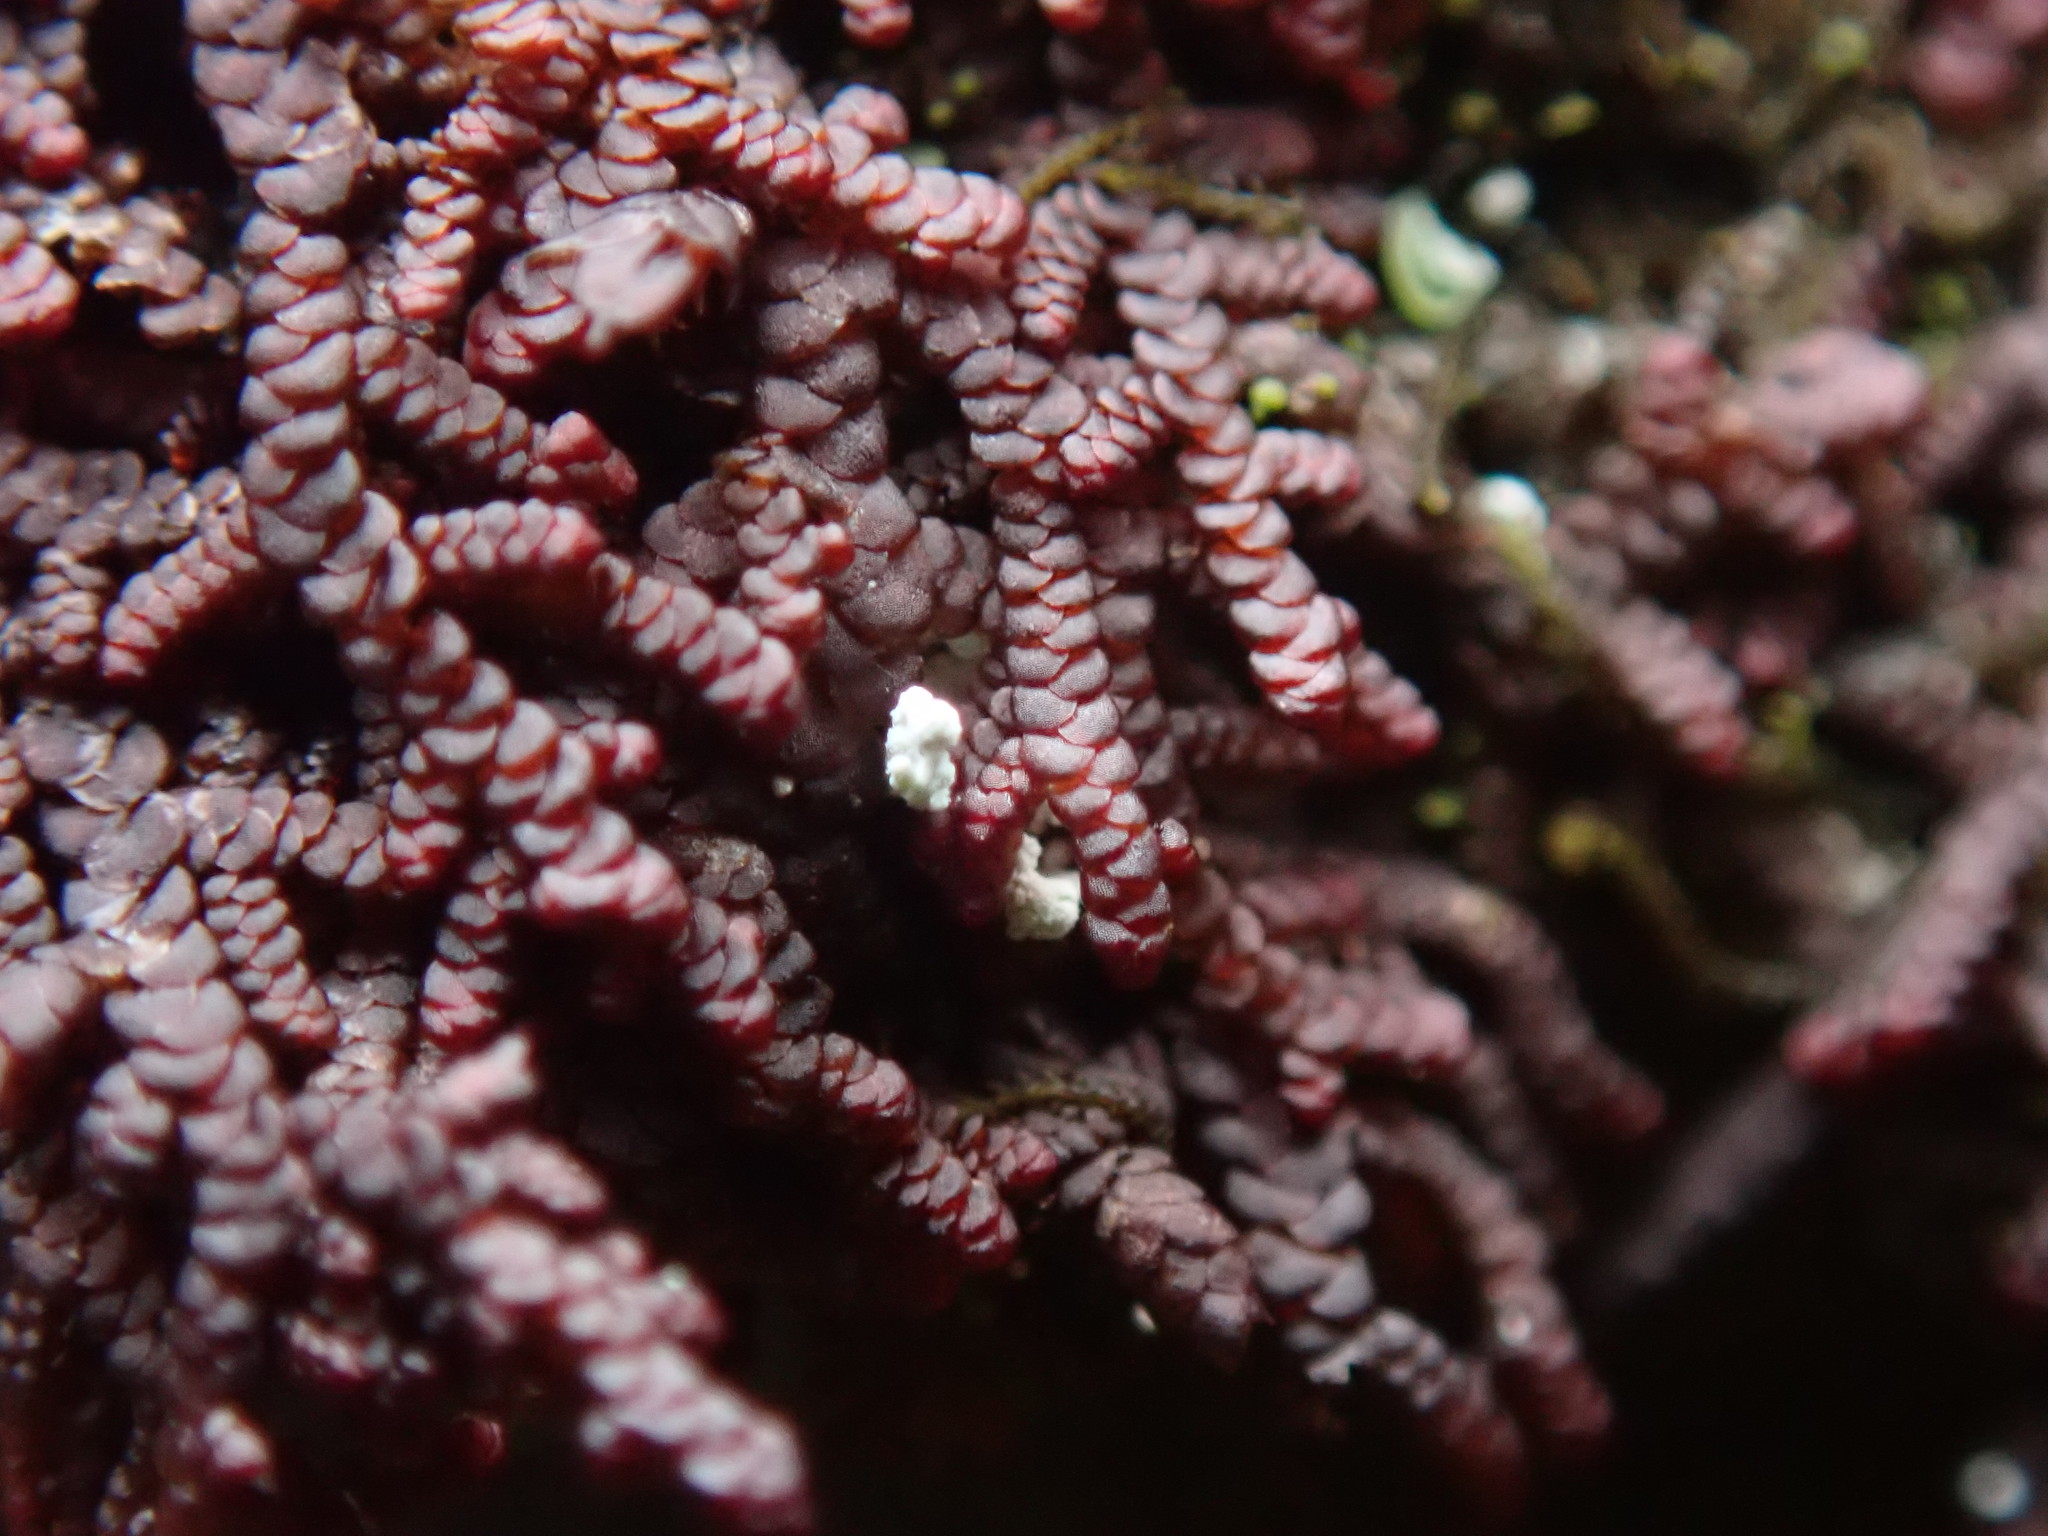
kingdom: Plantae
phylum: Marchantiophyta
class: Jungermanniopsida
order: Porellales
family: Frullaniaceae
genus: Frullania
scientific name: Frullania californica
